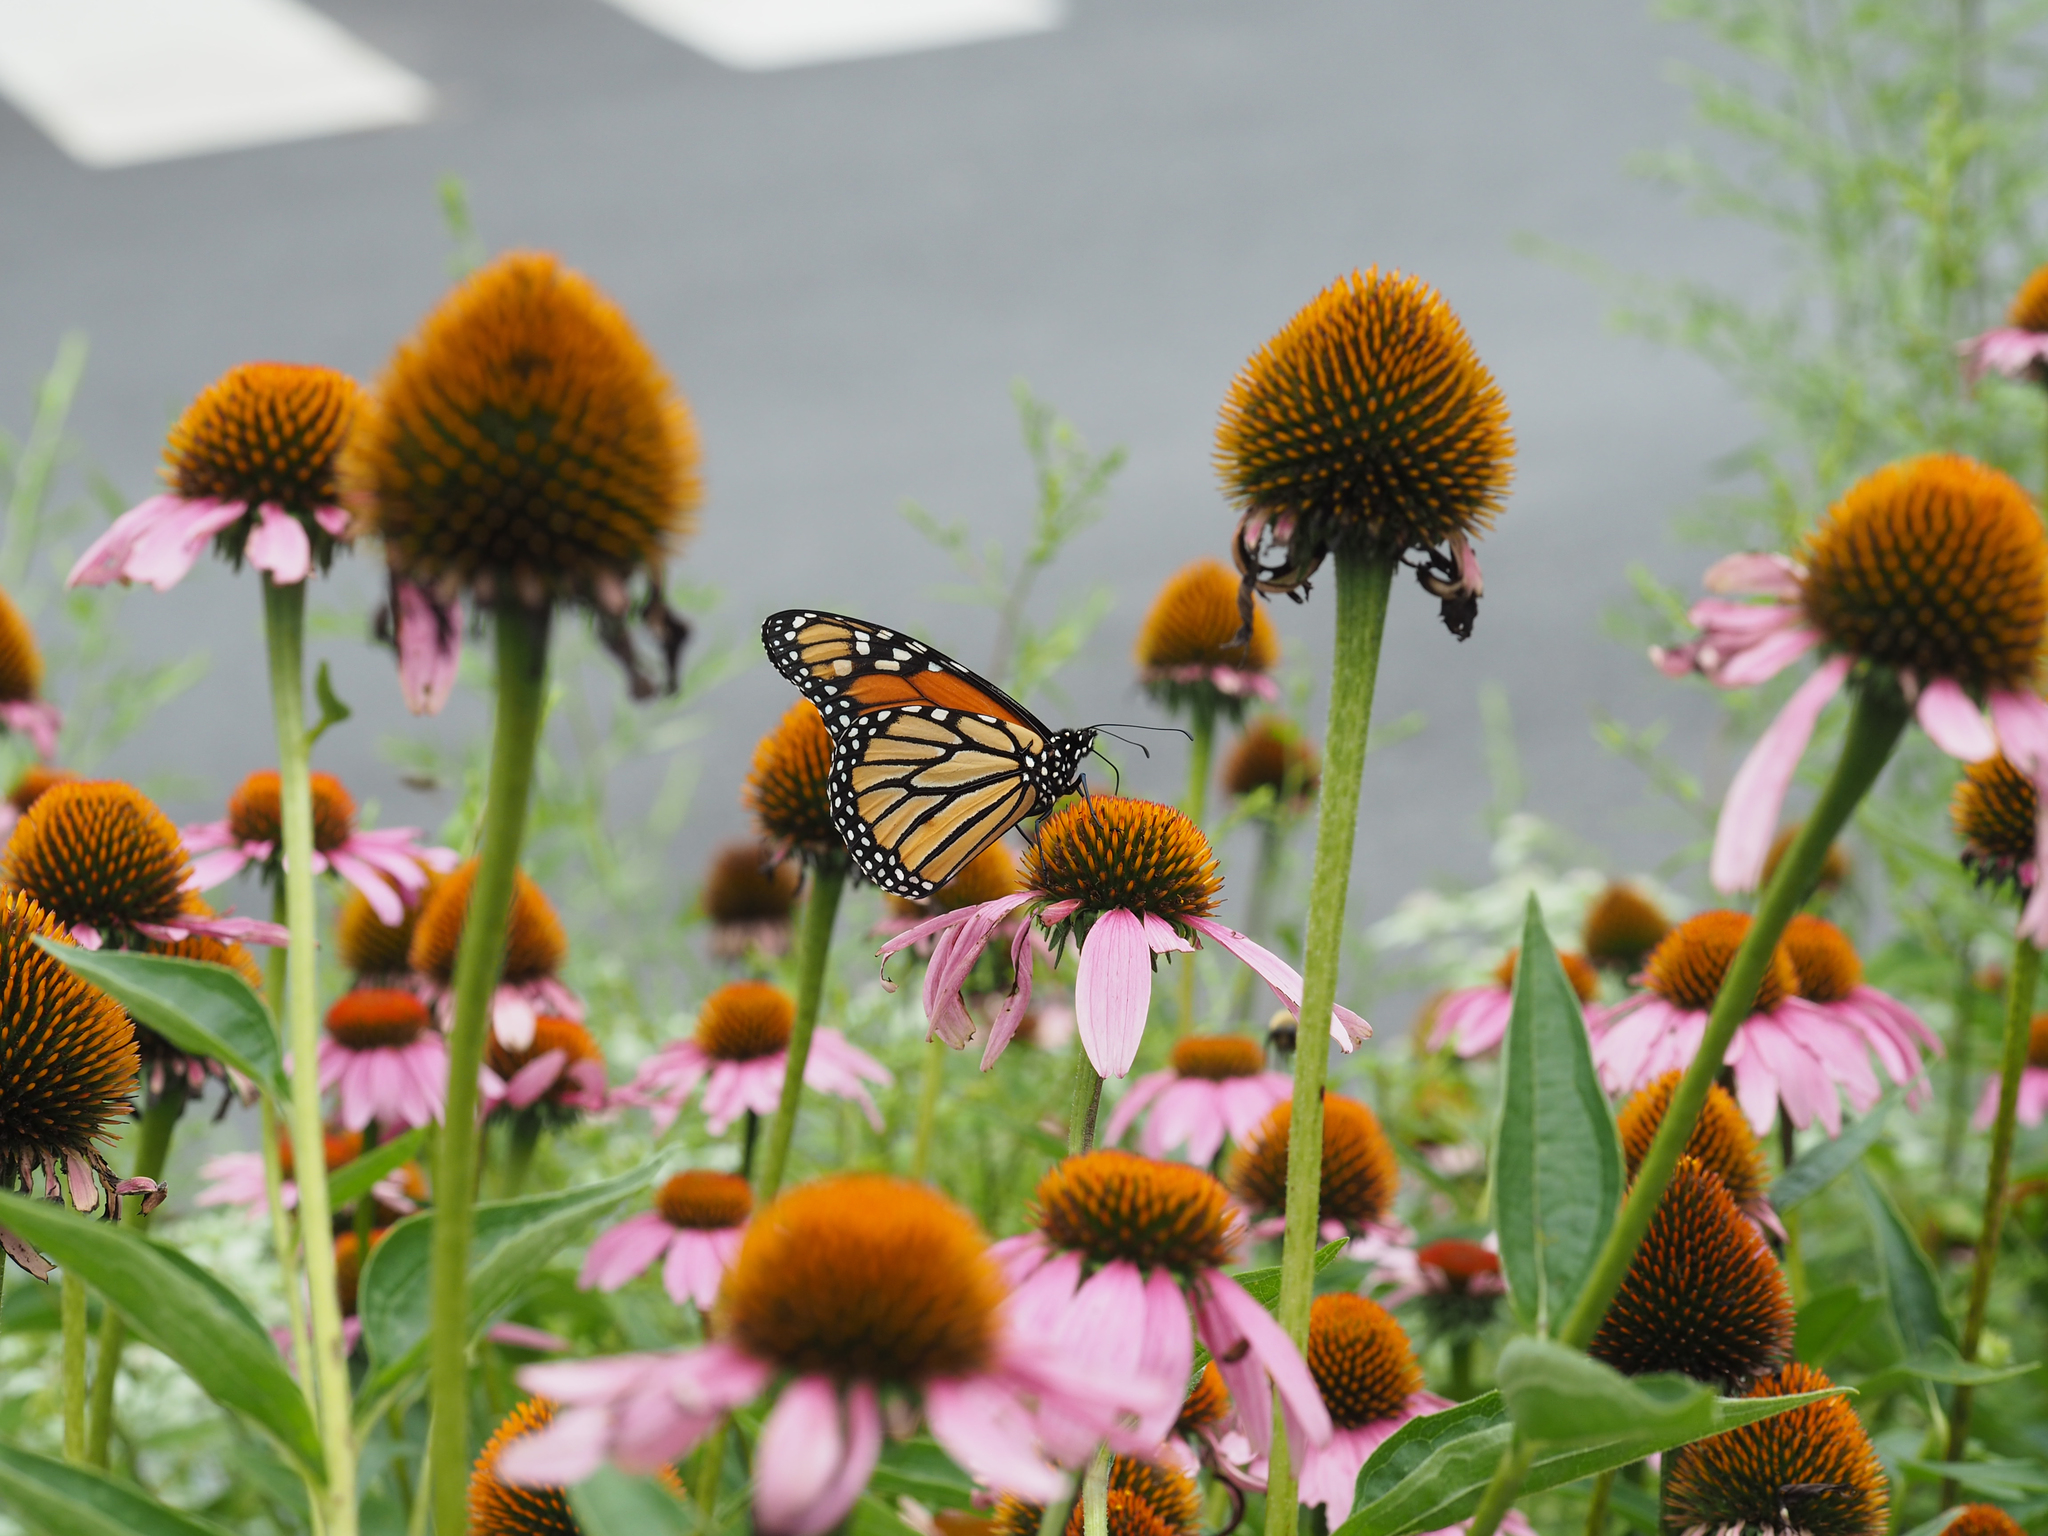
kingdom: Animalia
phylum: Arthropoda
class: Insecta
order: Lepidoptera
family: Nymphalidae
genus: Danaus
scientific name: Danaus plexippus
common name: Monarch
